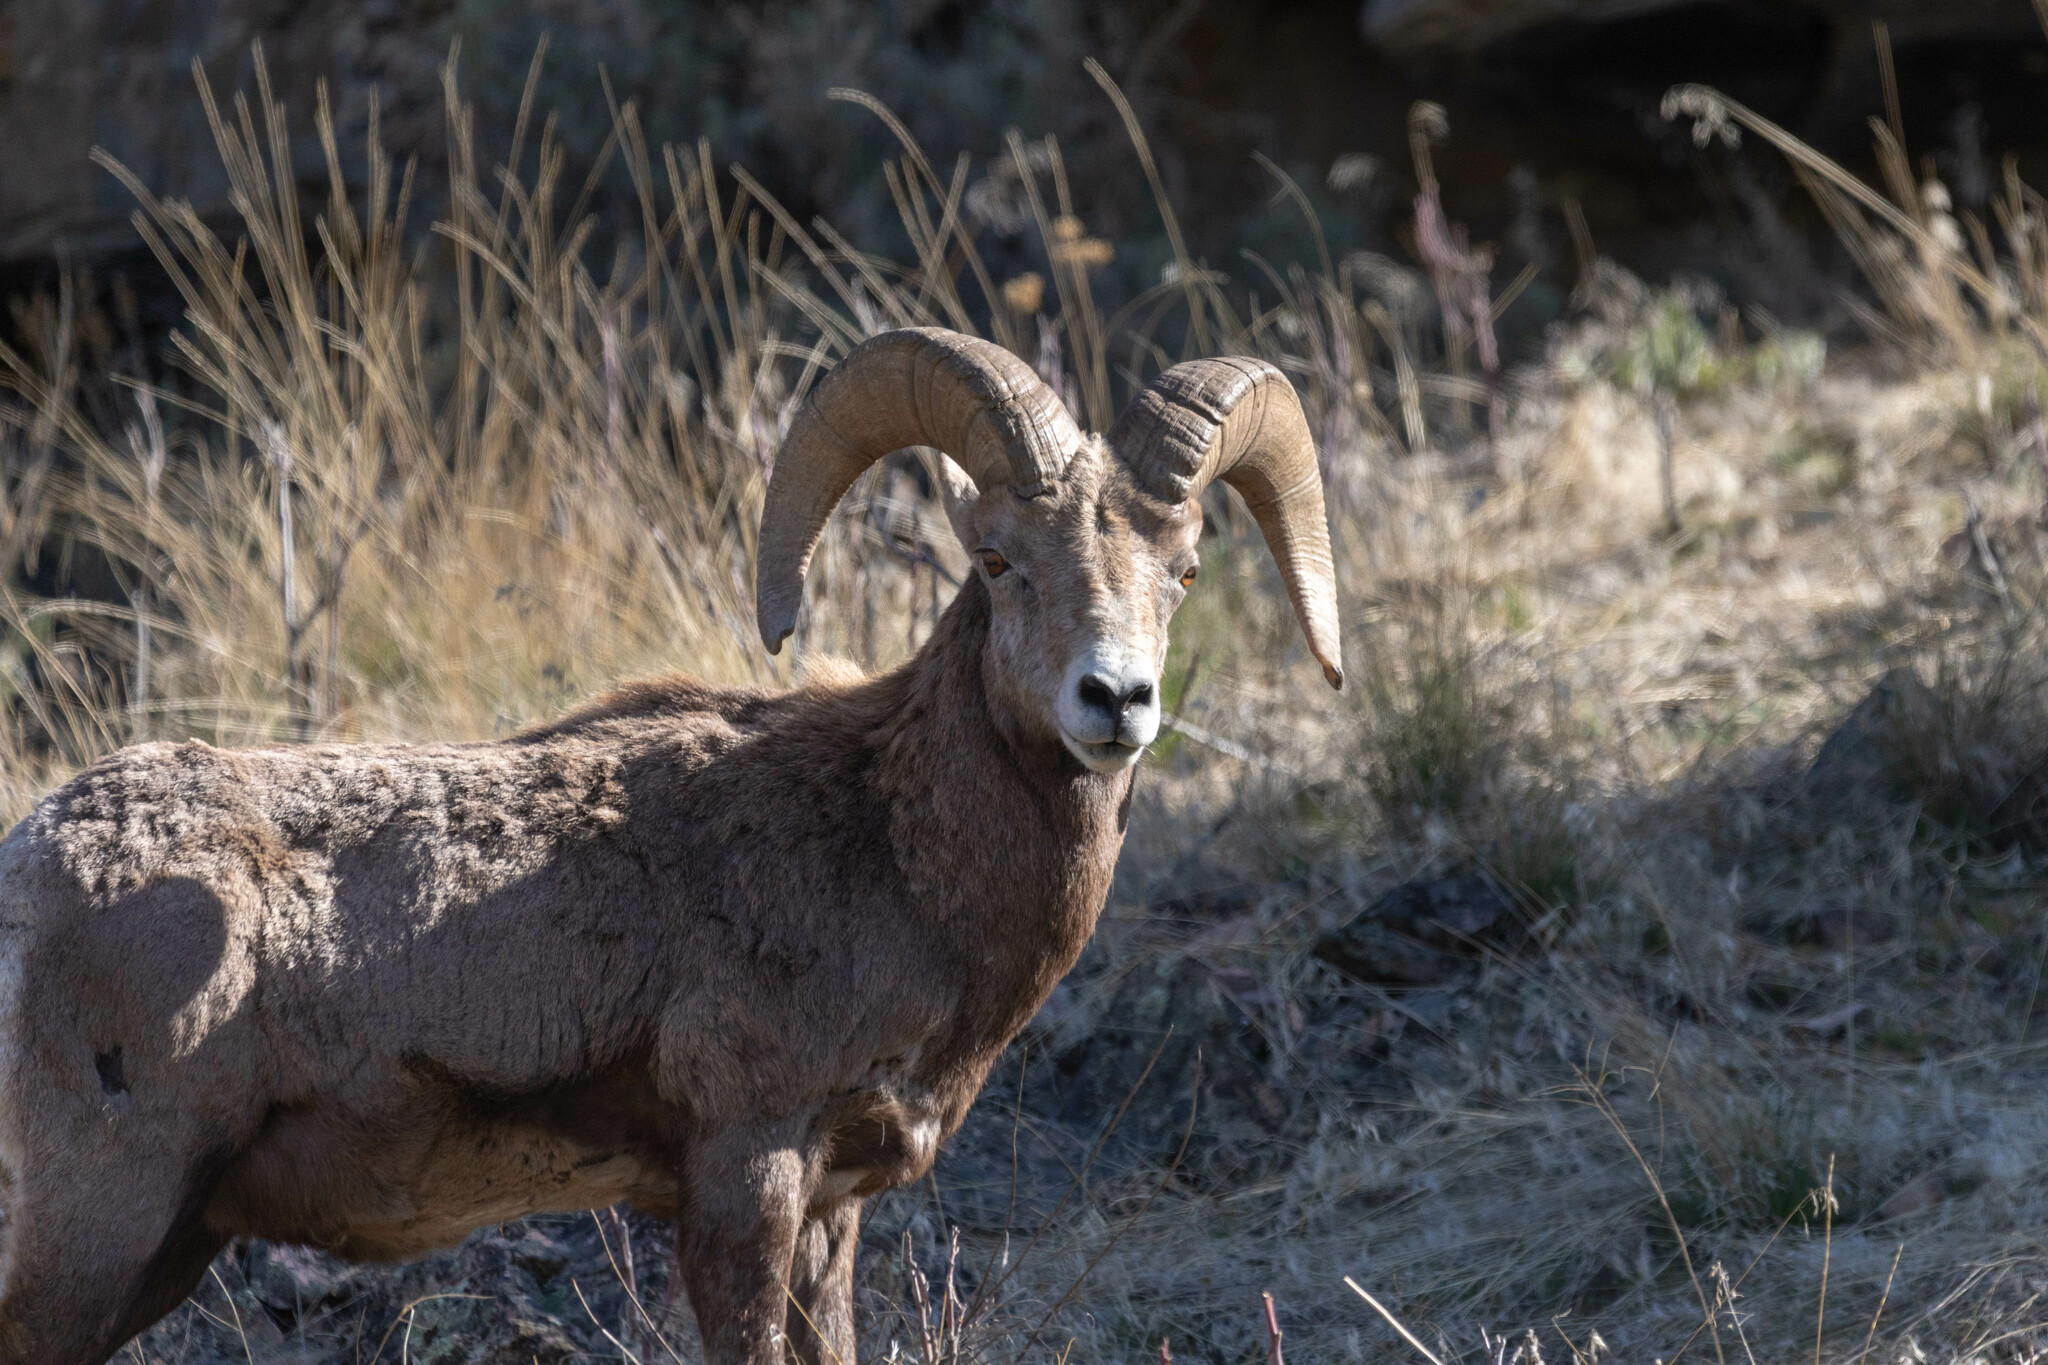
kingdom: Animalia
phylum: Chordata
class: Mammalia
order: Artiodactyla
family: Bovidae
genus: Ovis
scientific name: Ovis canadensis
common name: Bighorn sheep
